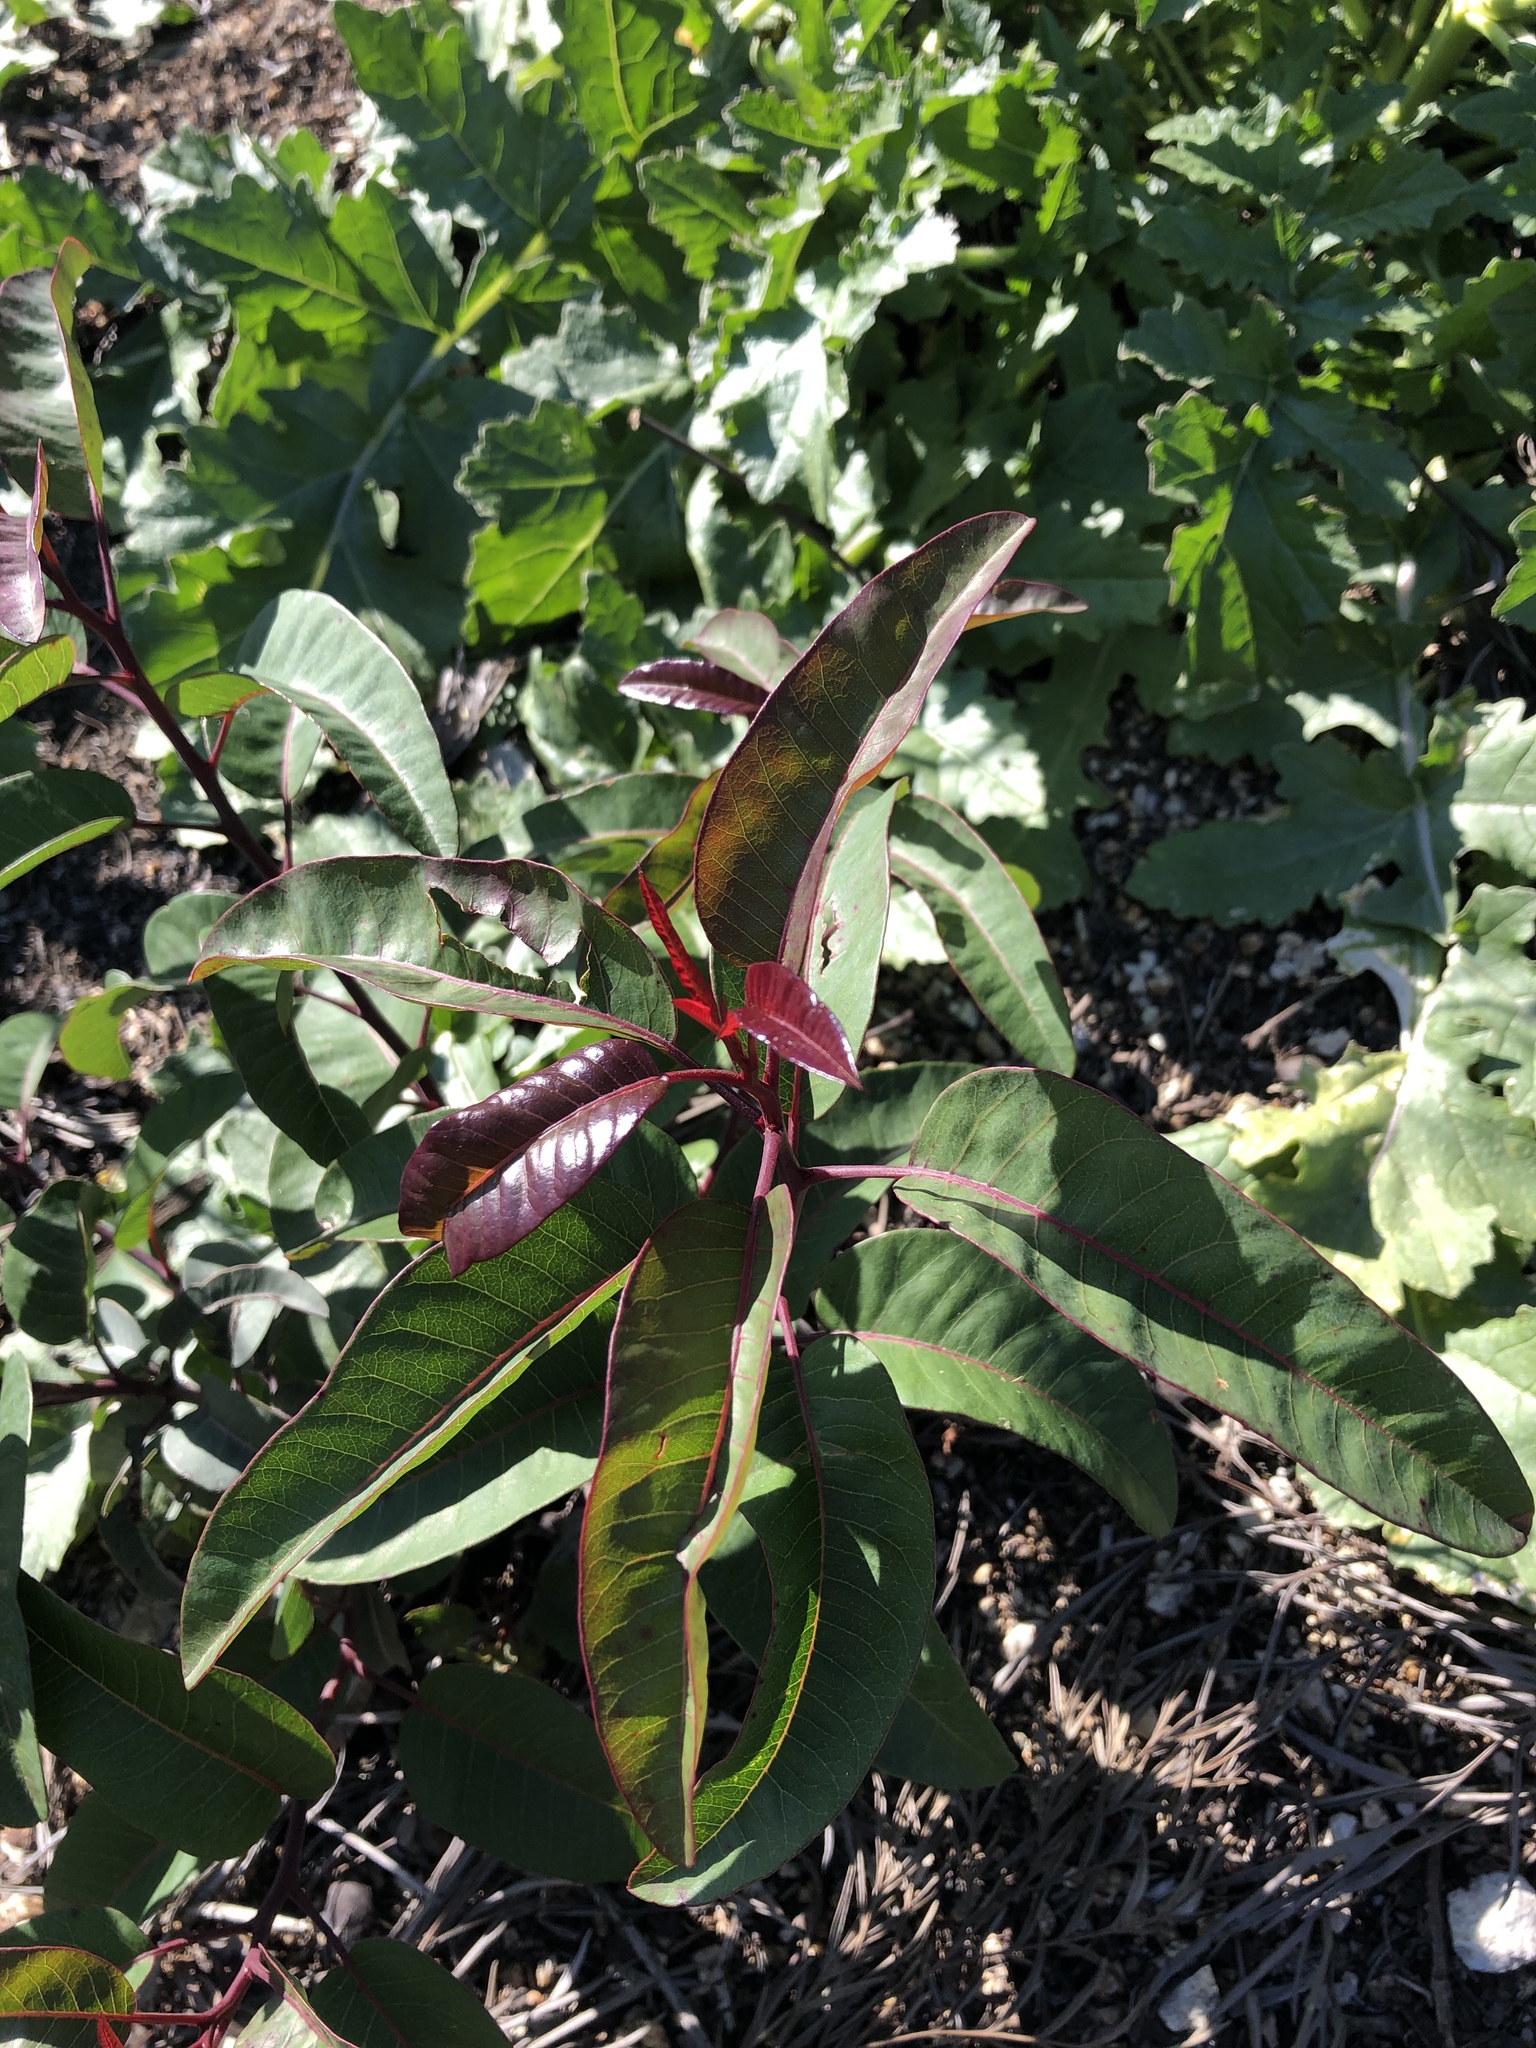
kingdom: Plantae
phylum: Tracheophyta
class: Magnoliopsida
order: Sapindales
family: Anacardiaceae
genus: Malosma
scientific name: Malosma laurina
